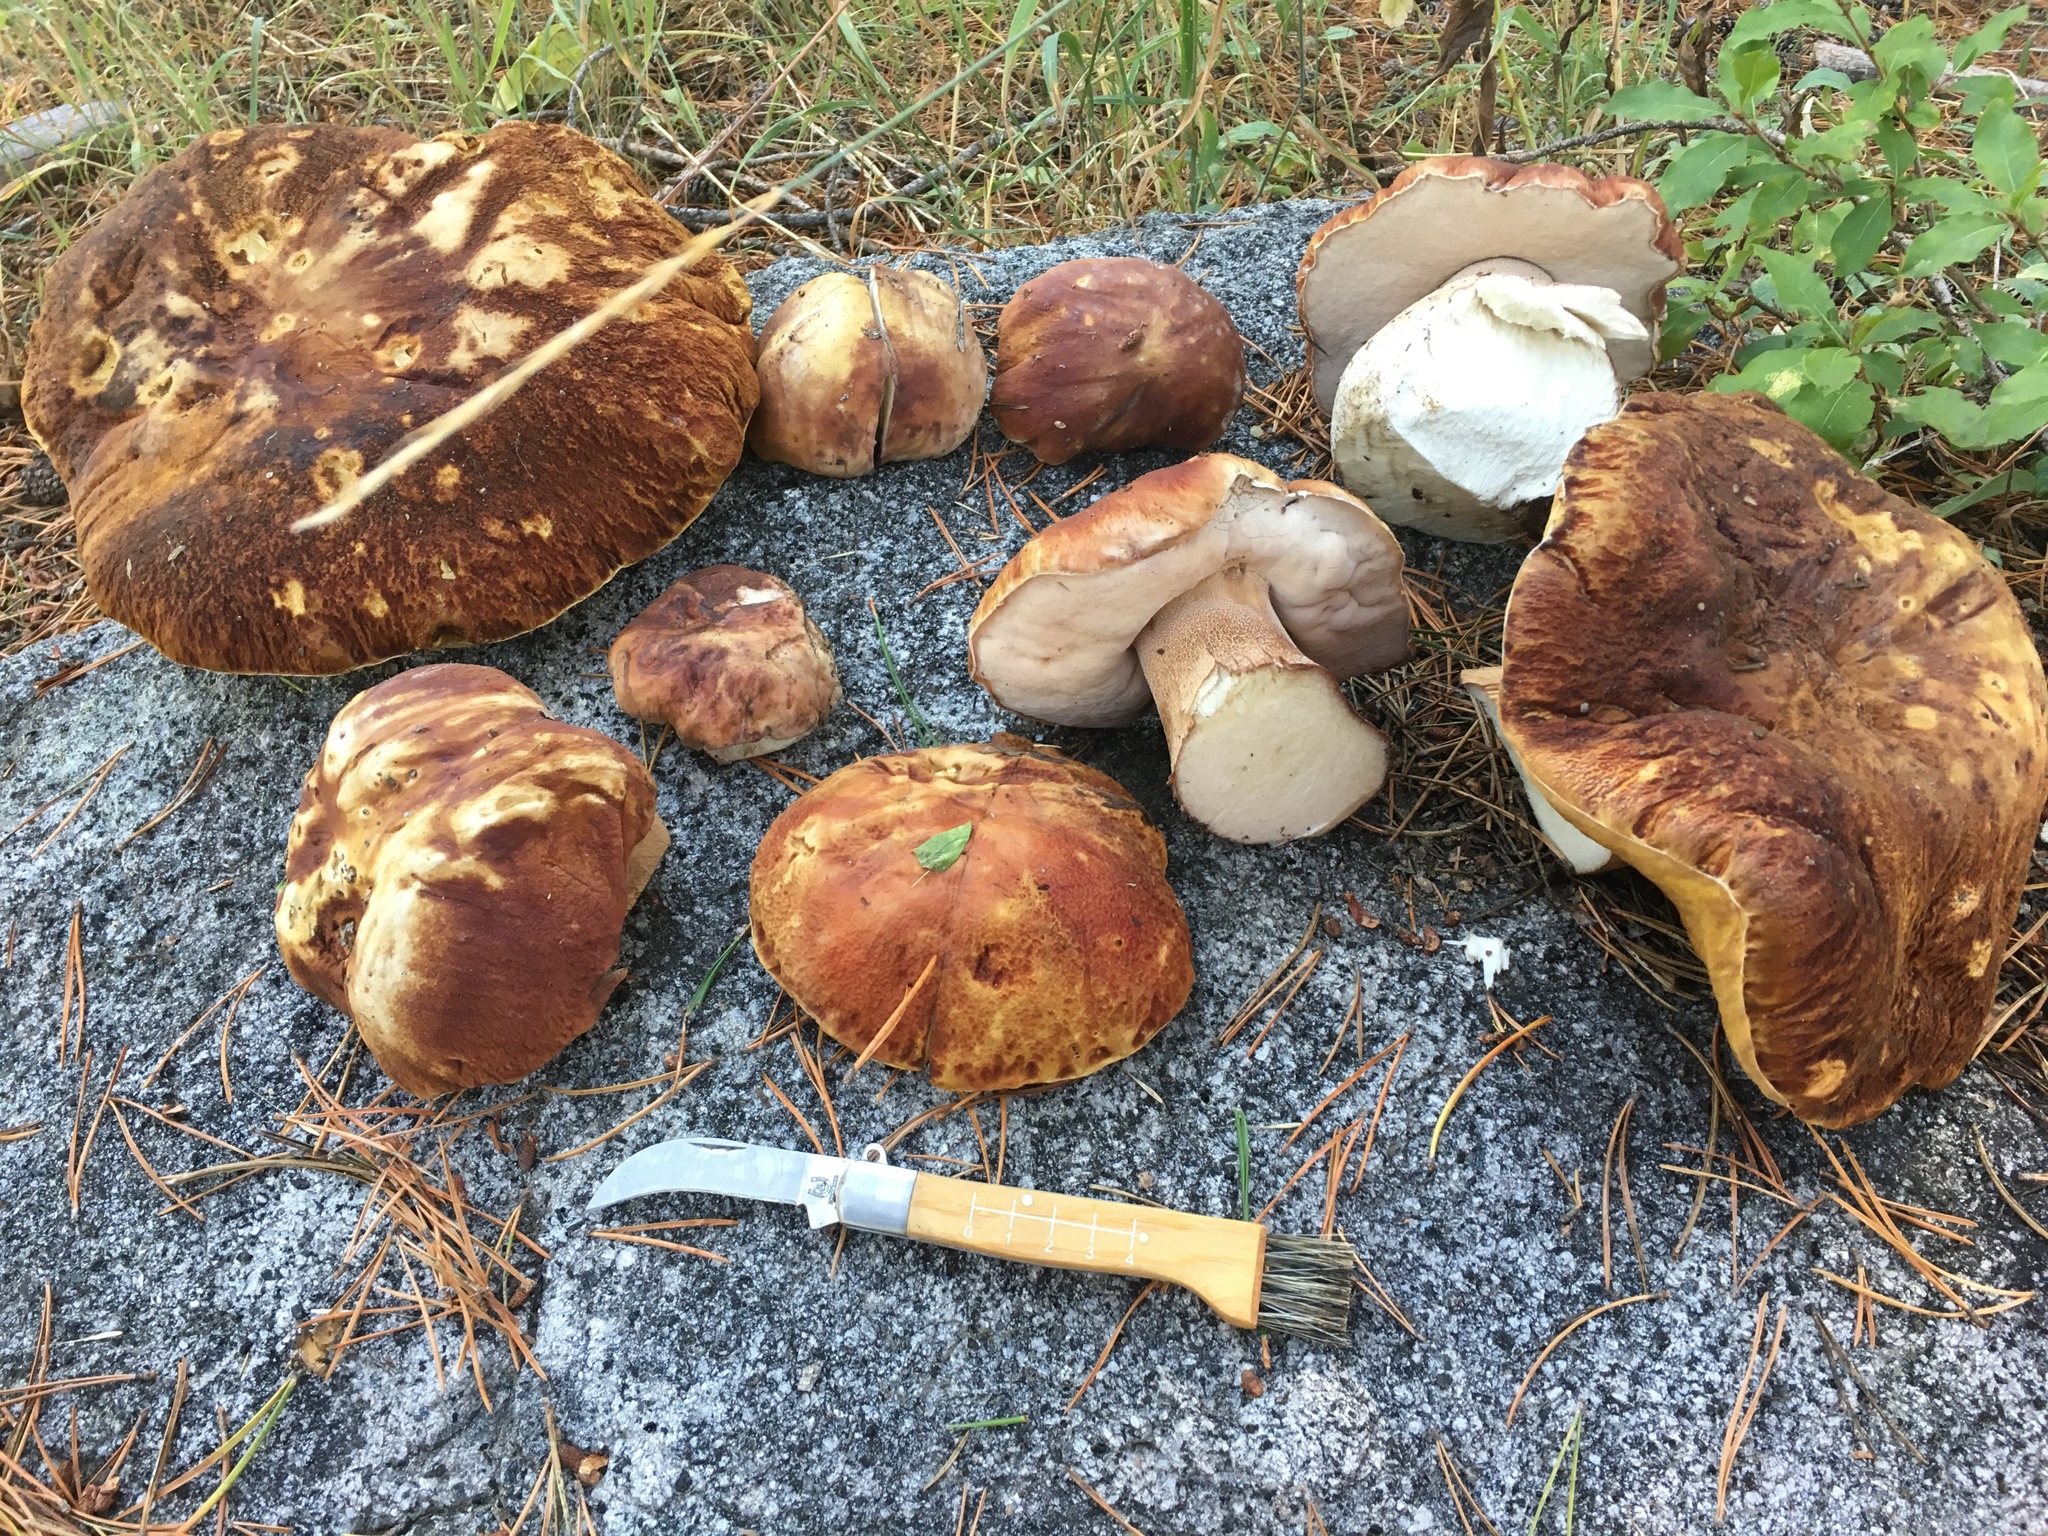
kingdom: Fungi
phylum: Basidiomycota
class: Agaricomycetes
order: Boletales
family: Boletaceae
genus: Boletus
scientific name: Boletus edulis
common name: Cep
